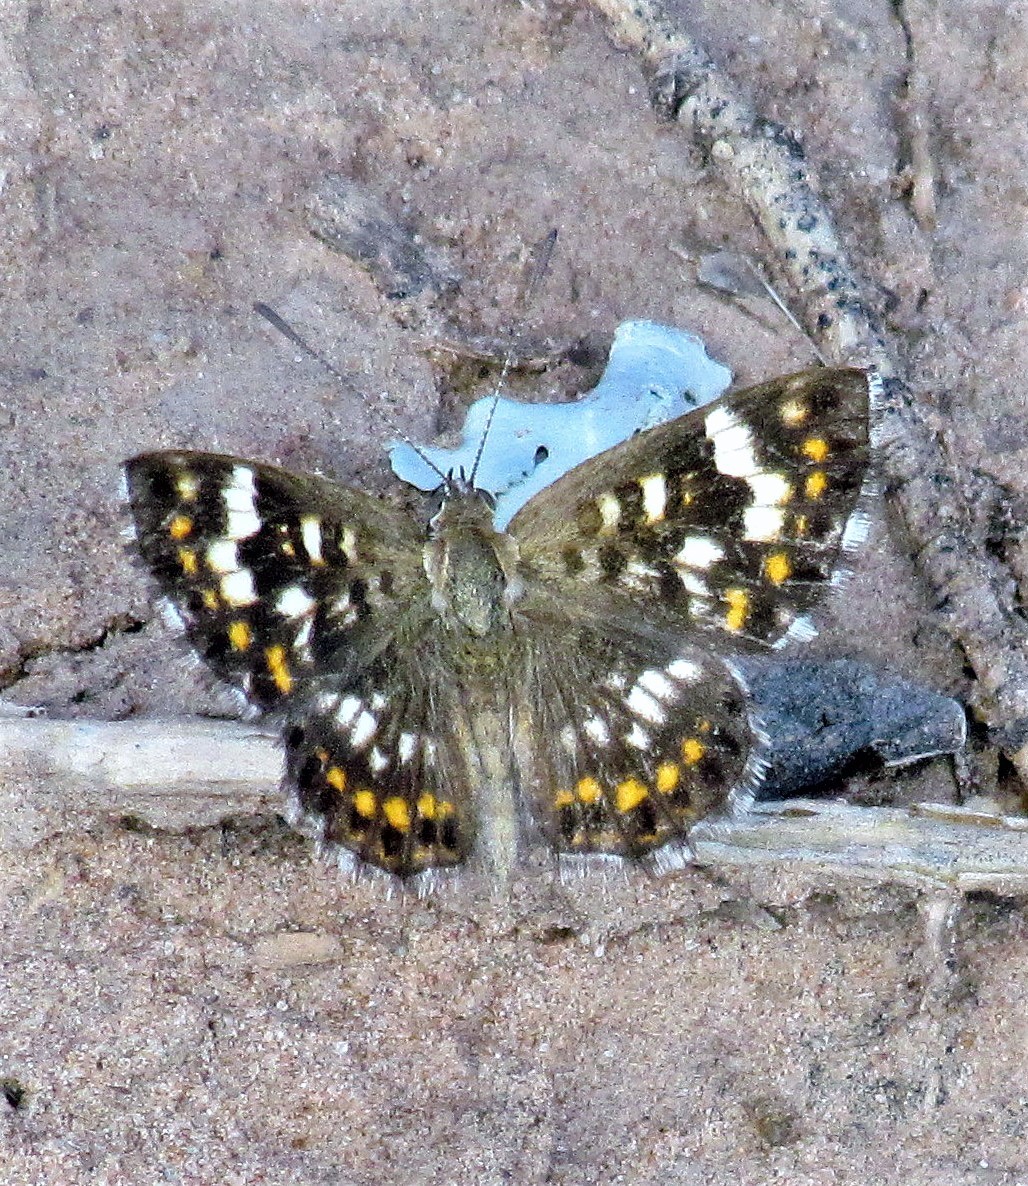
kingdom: Animalia
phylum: Arthropoda
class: Insecta
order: Lepidoptera
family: Lycaenidae
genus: Aricoris
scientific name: Aricoris signata
